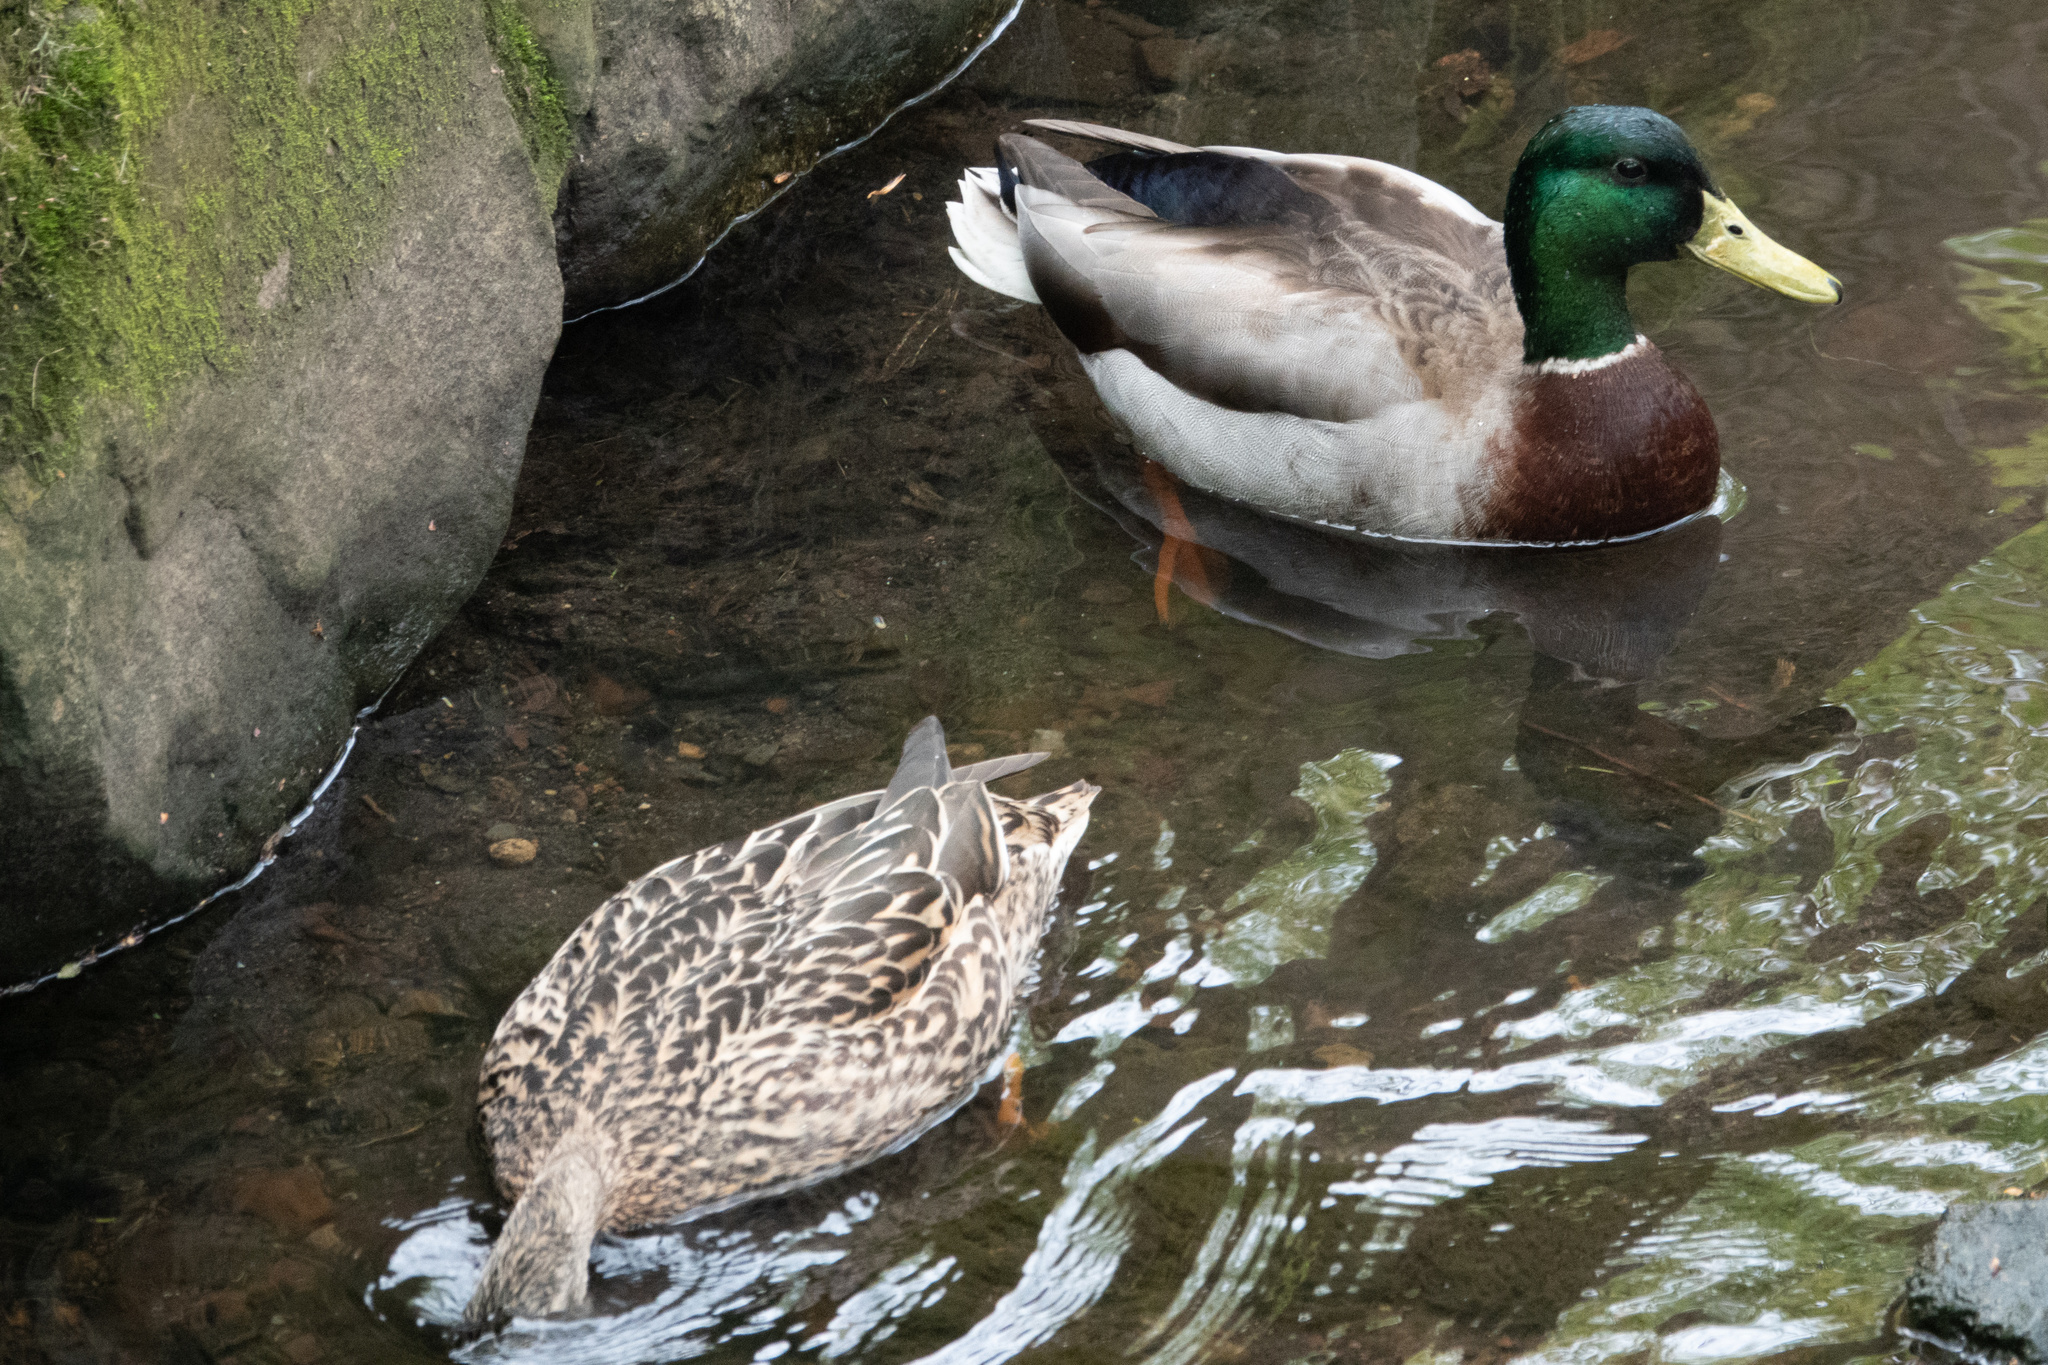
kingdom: Animalia
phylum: Chordata
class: Aves
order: Anseriformes
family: Anatidae
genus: Anas
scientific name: Anas platyrhynchos
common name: Mallard
